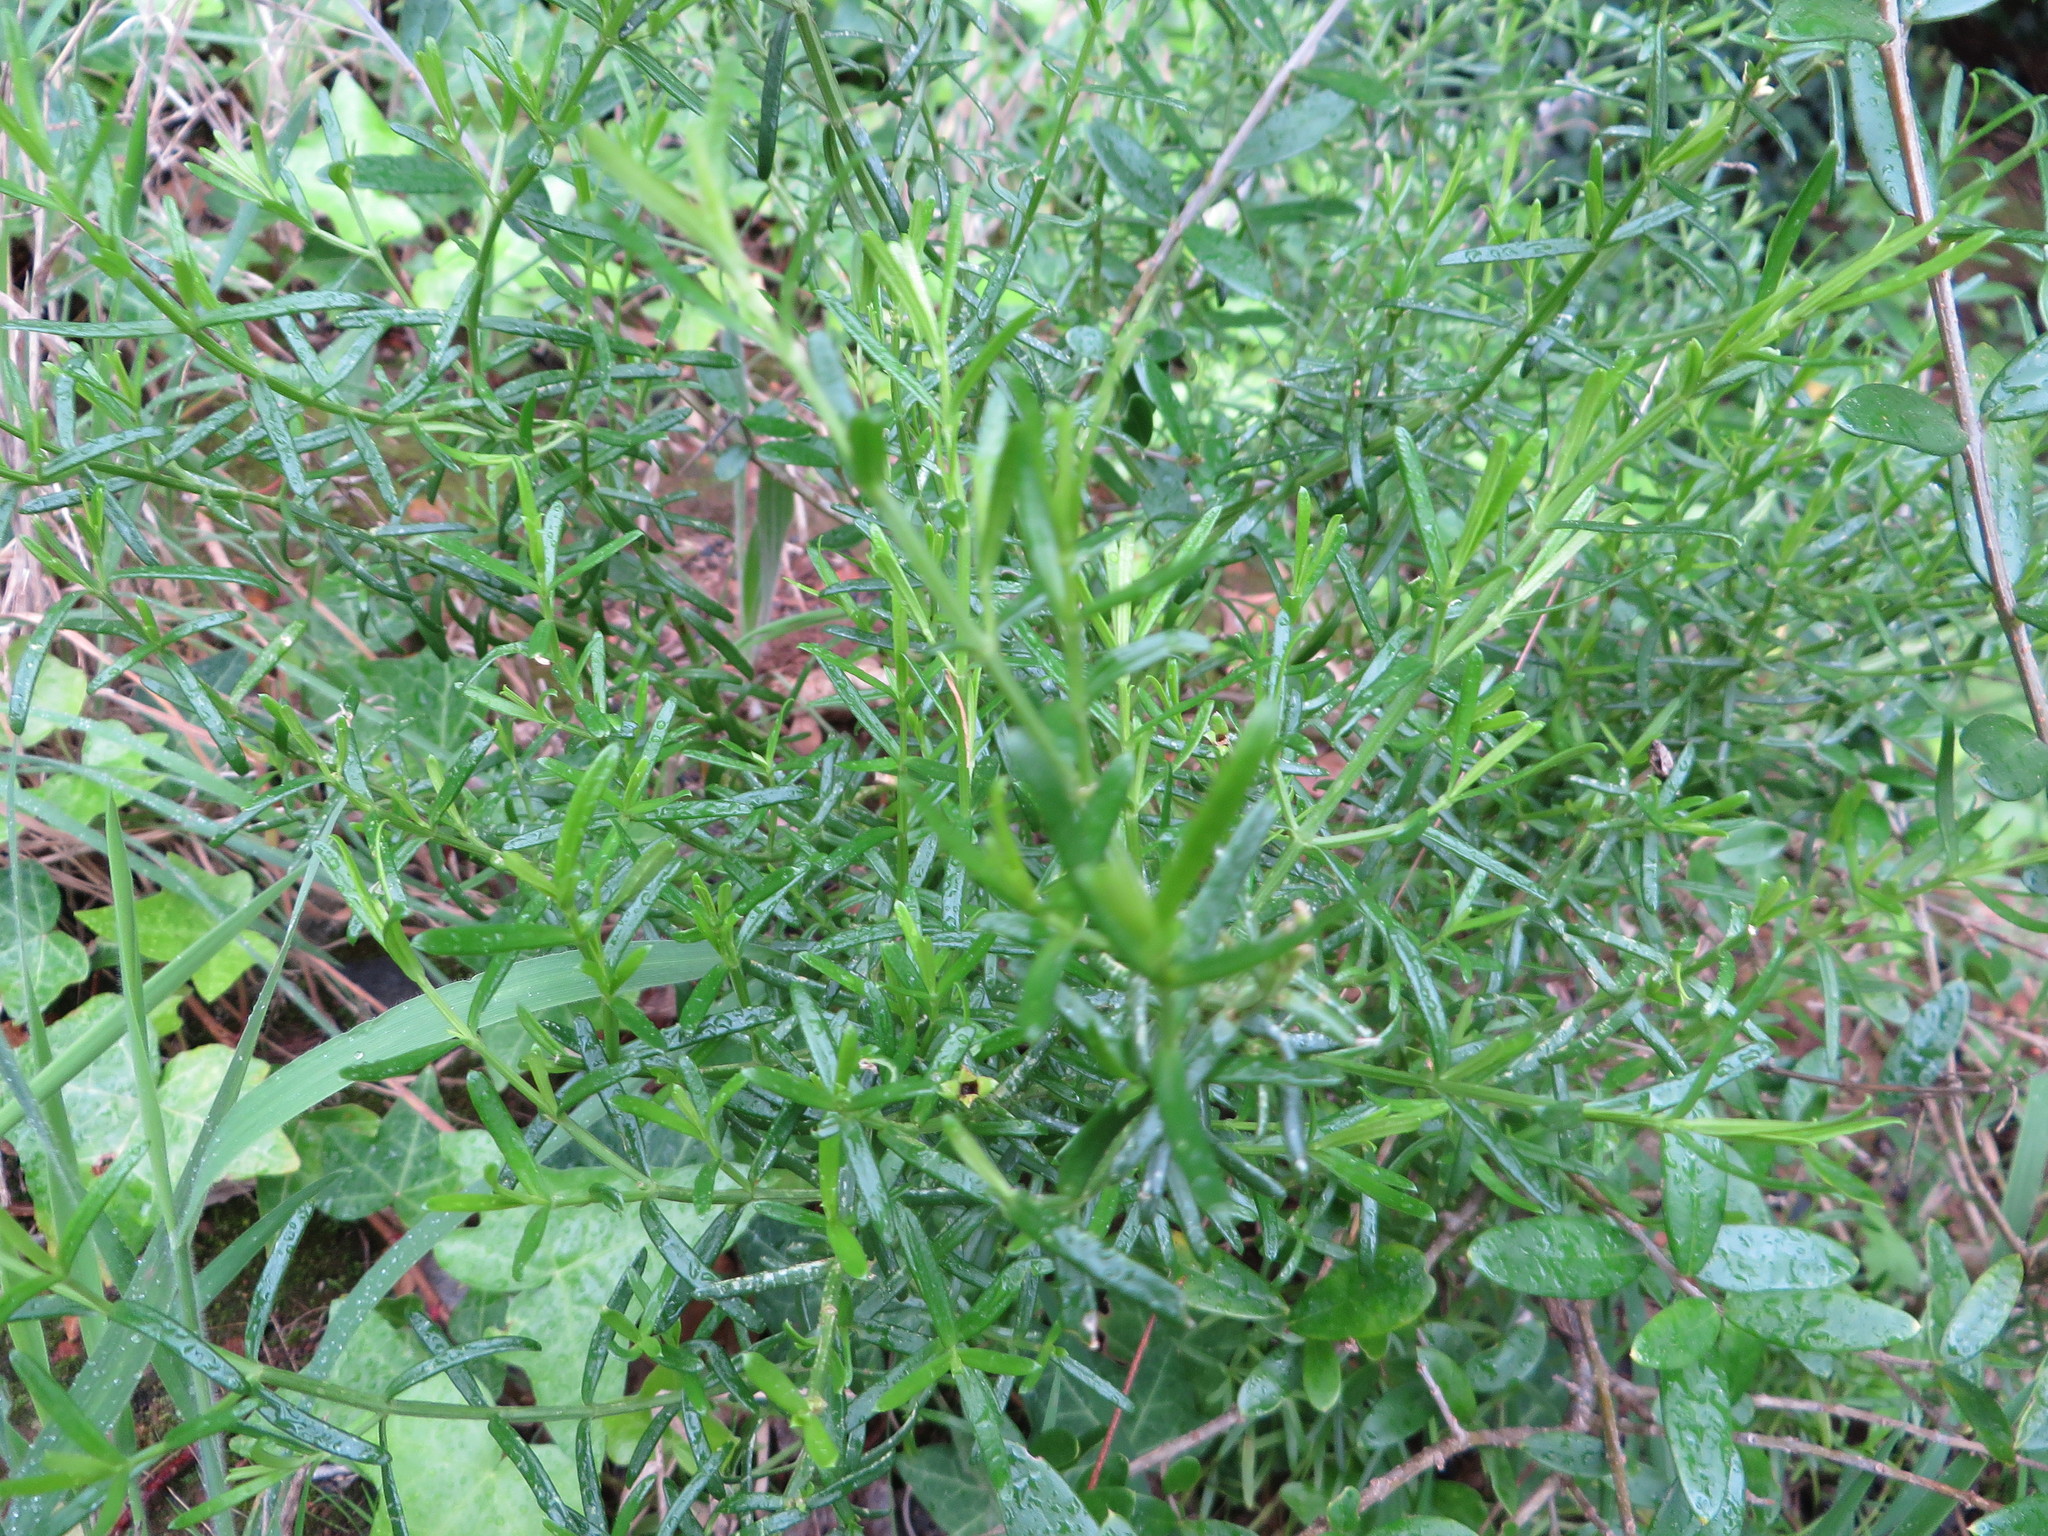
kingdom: Plantae
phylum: Tracheophyta
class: Magnoliopsida
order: Gentianales
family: Gentianaceae
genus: Chironia
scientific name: Chironia baccifera
